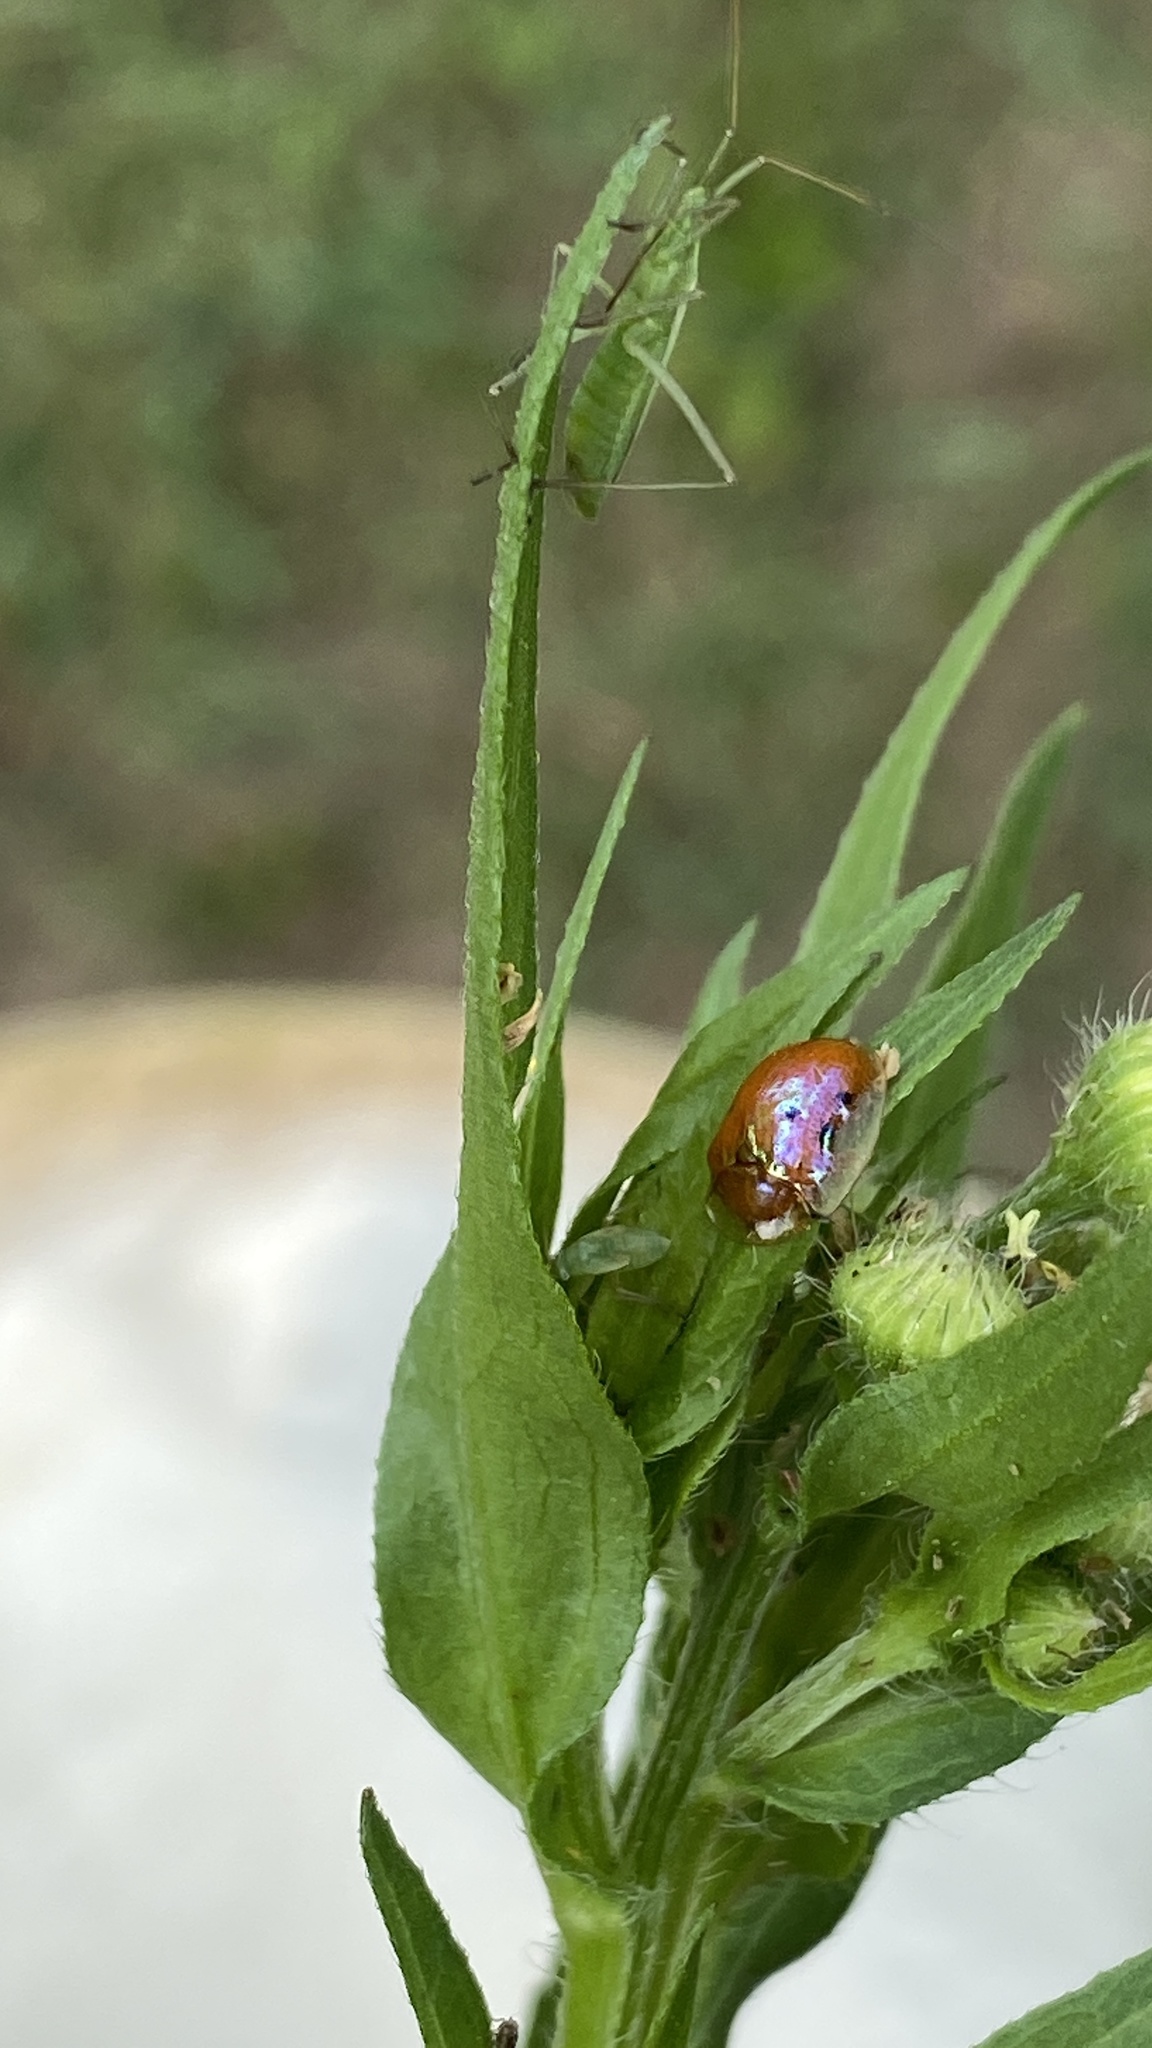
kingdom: Animalia
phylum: Arthropoda
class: Insecta
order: Coleoptera
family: Chrysomelidae
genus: Charidotella
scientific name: Charidotella sexpunctata
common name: Golden tortoise beetle
